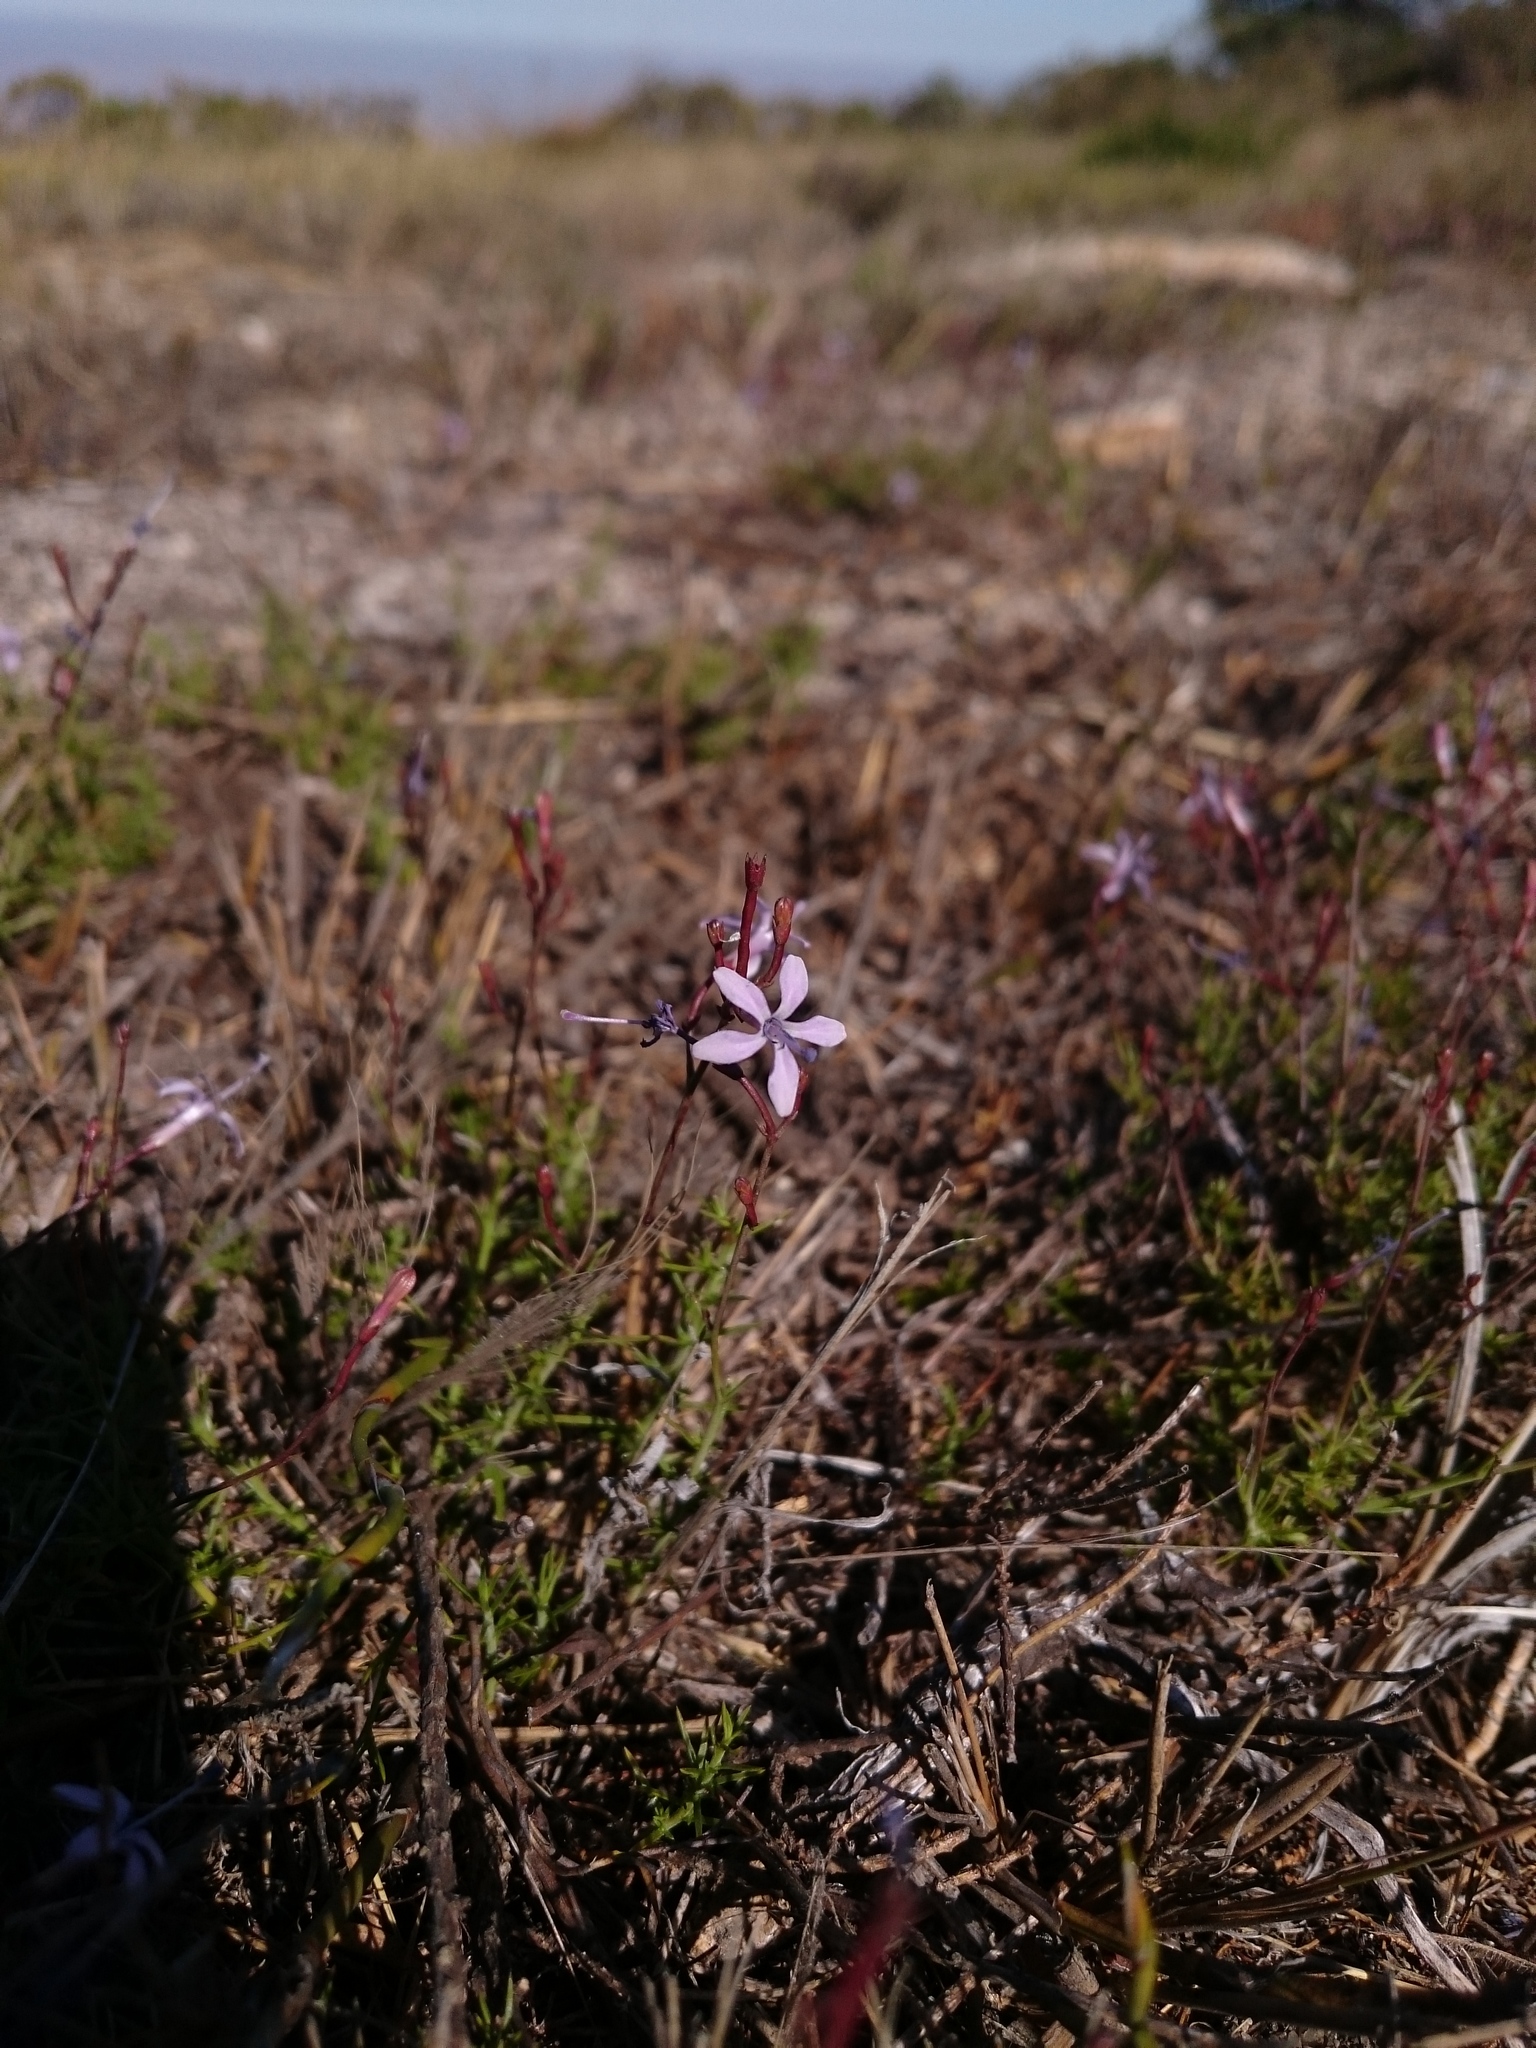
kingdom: Plantae
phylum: Tracheophyta
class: Magnoliopsida
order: Asterales
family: Campanulaceae
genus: Prismatocarpus
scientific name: Prismatocarpus diffusus
